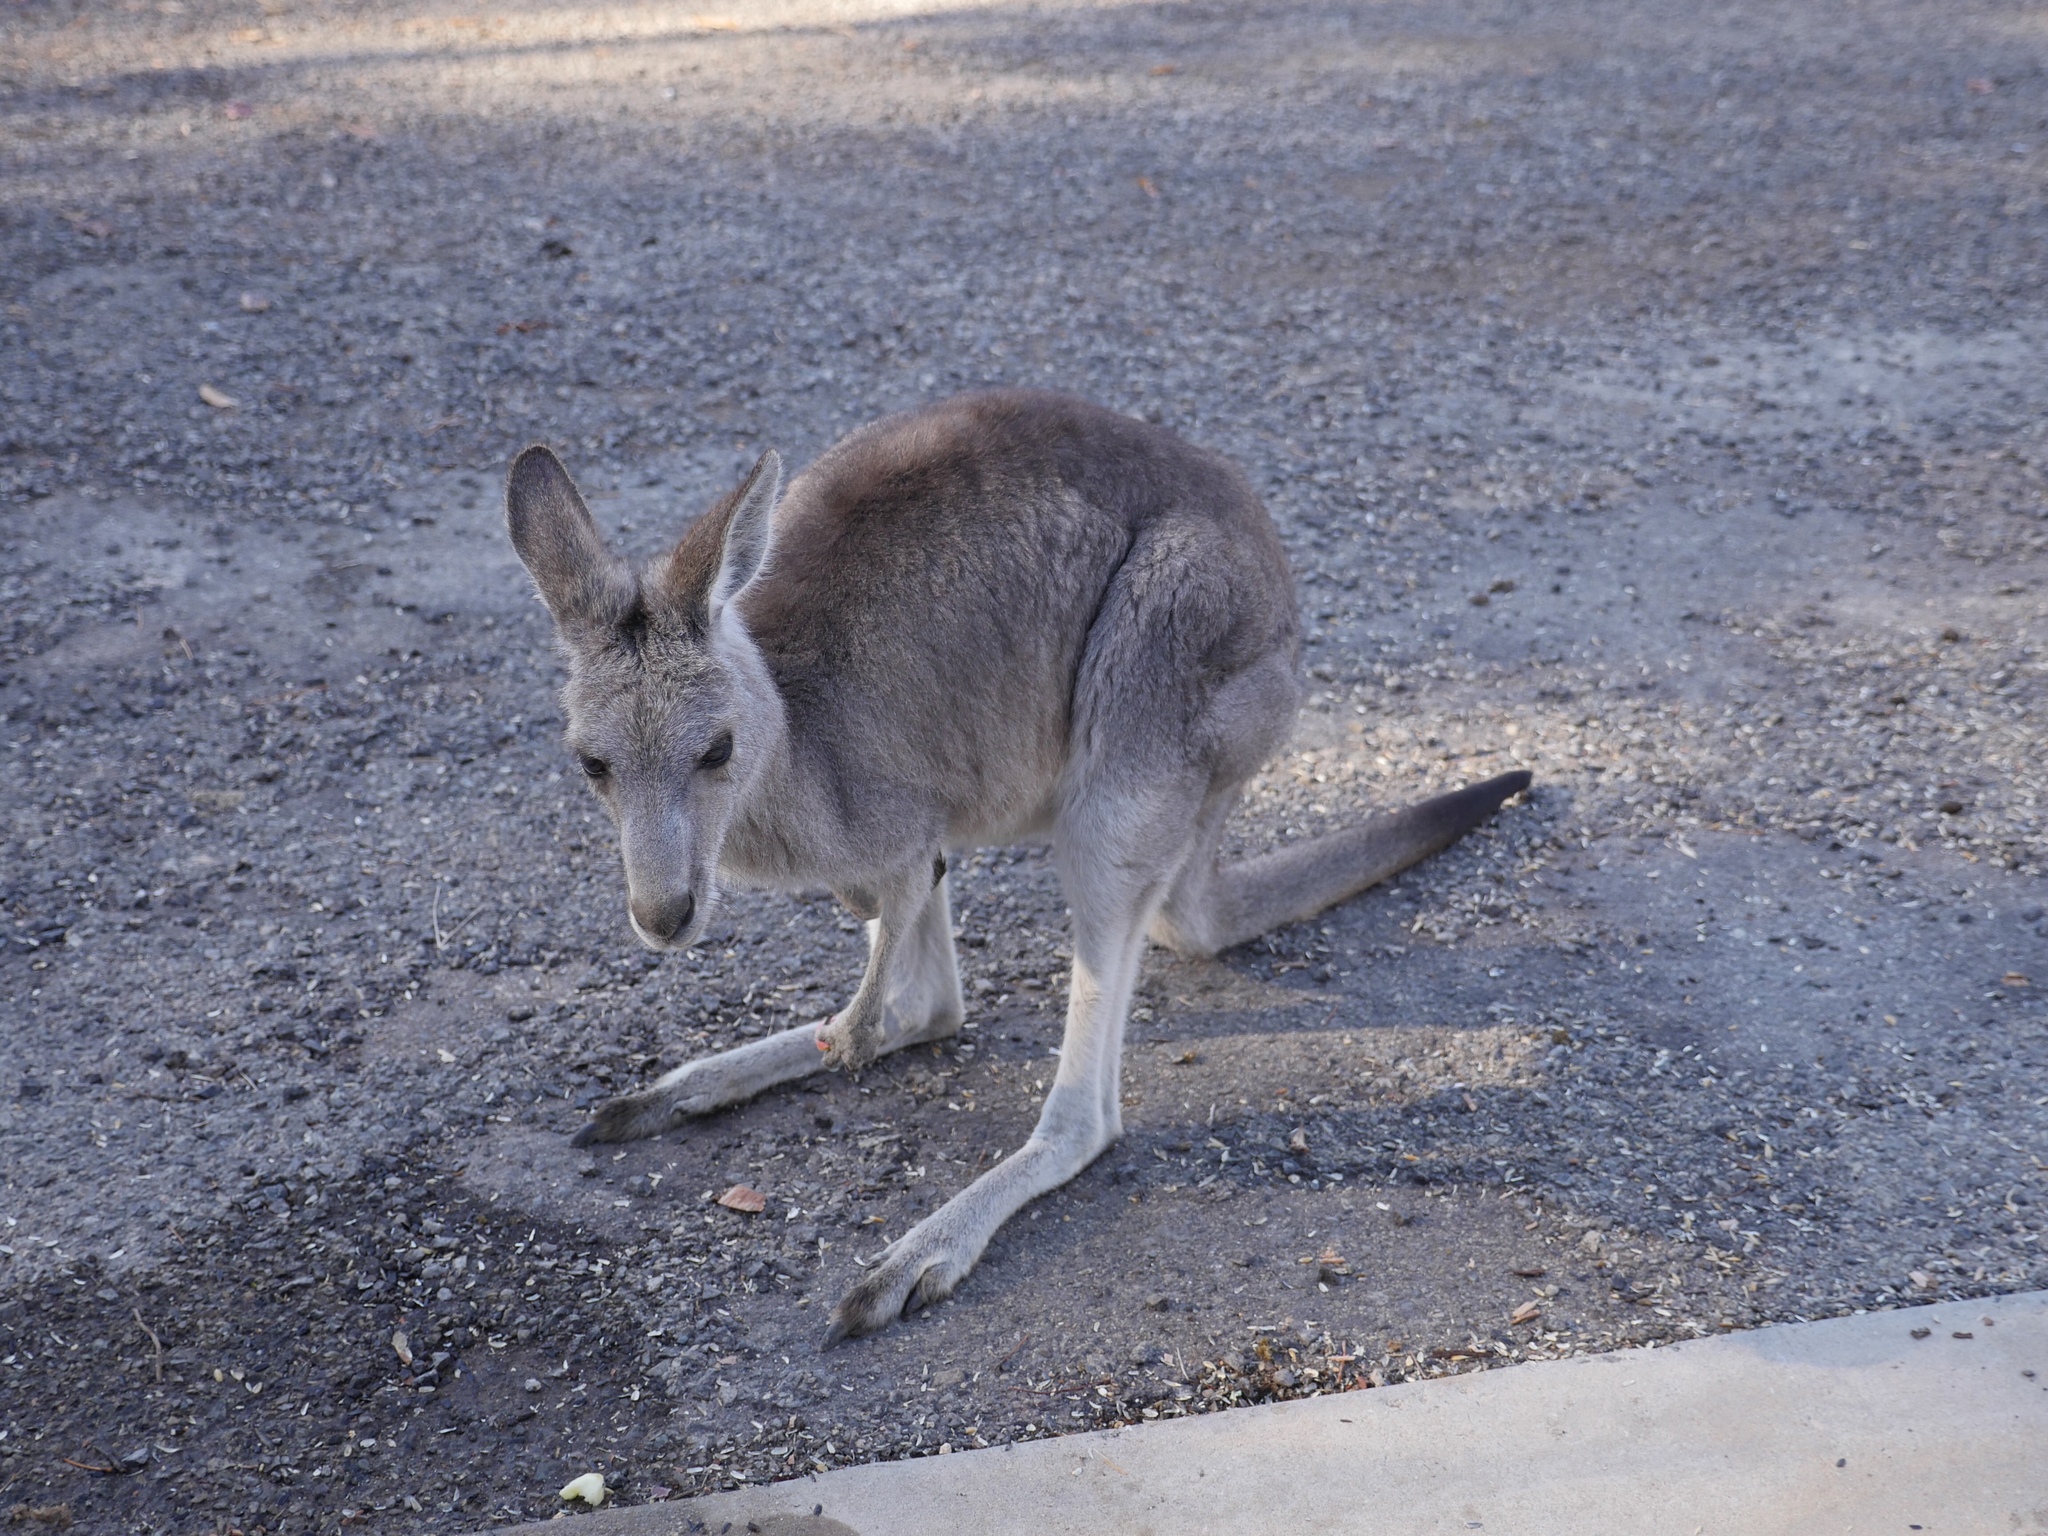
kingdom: Animalia
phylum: Chordata
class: Mammalia
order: Diprotodontia
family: Macropodidae
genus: Macropus
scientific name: Macropus giganteus
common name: Eastern grey kangaroo
